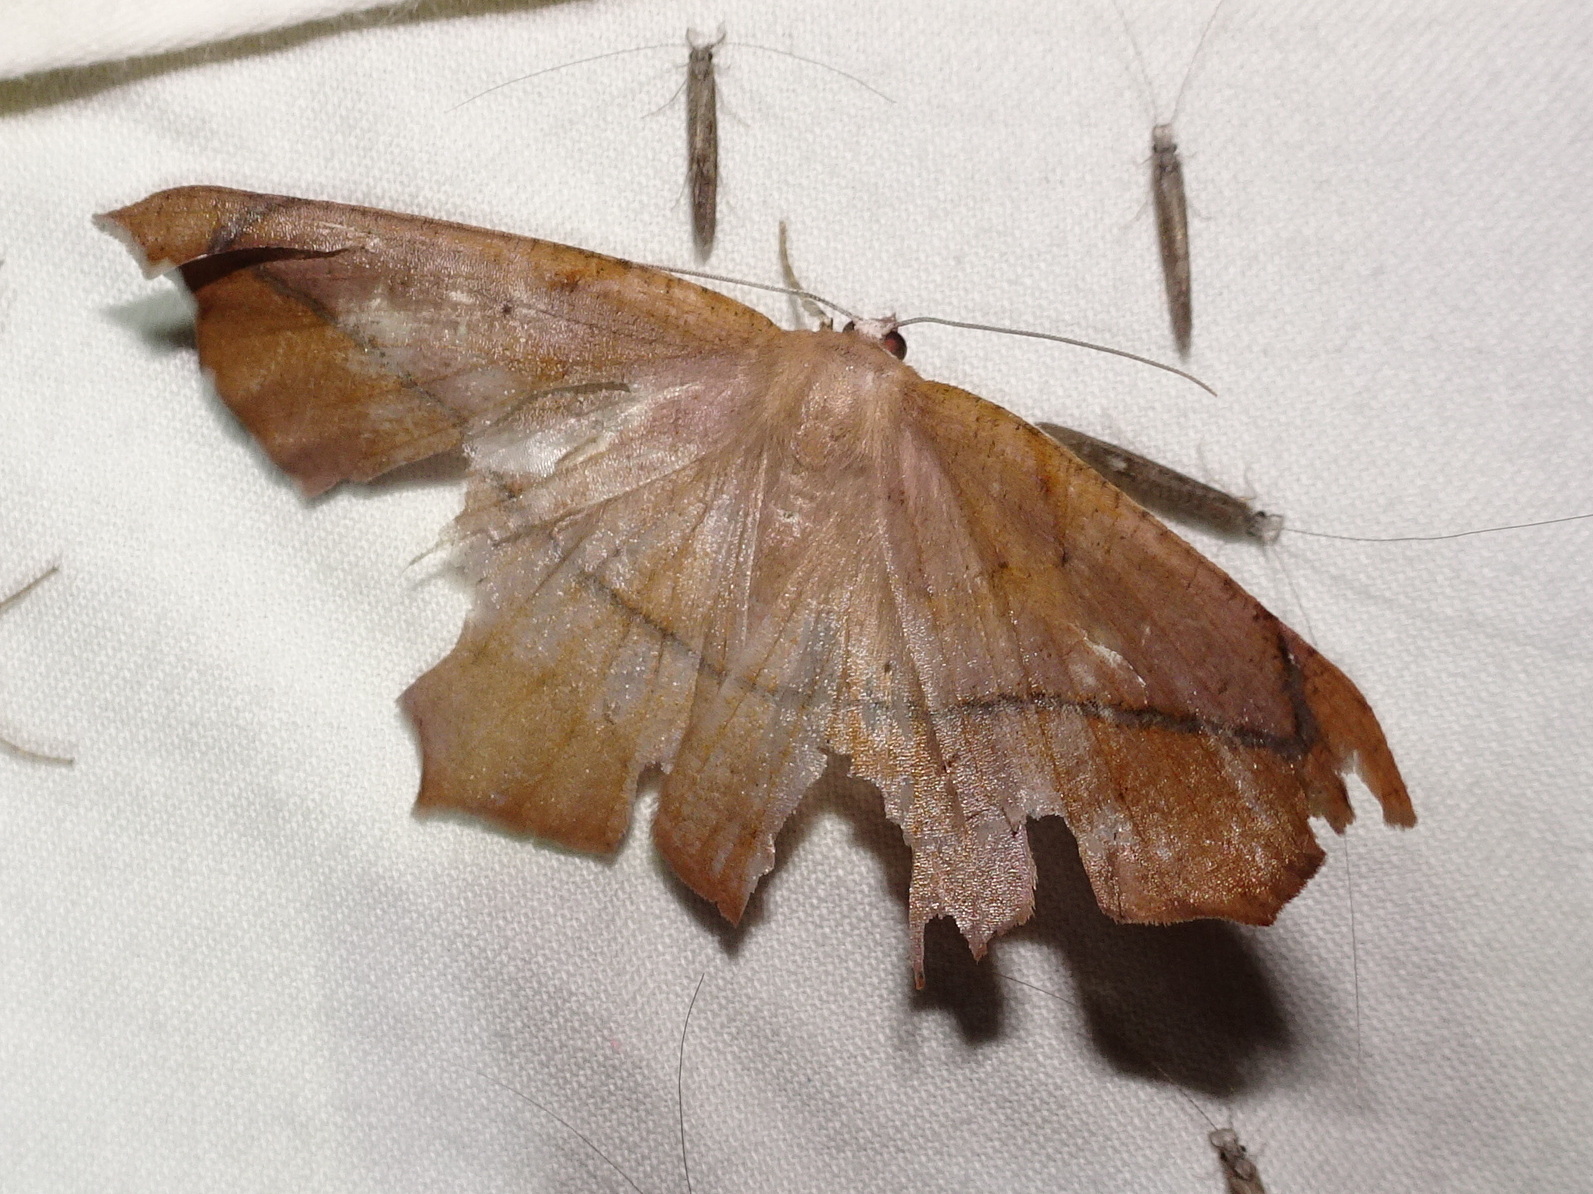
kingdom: Animalia
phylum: Arthropoda
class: Insecta
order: Lepidoptera
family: Geometridae
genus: Prochoerodes
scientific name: Prochoerodes lineola
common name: Large maple spanworm
